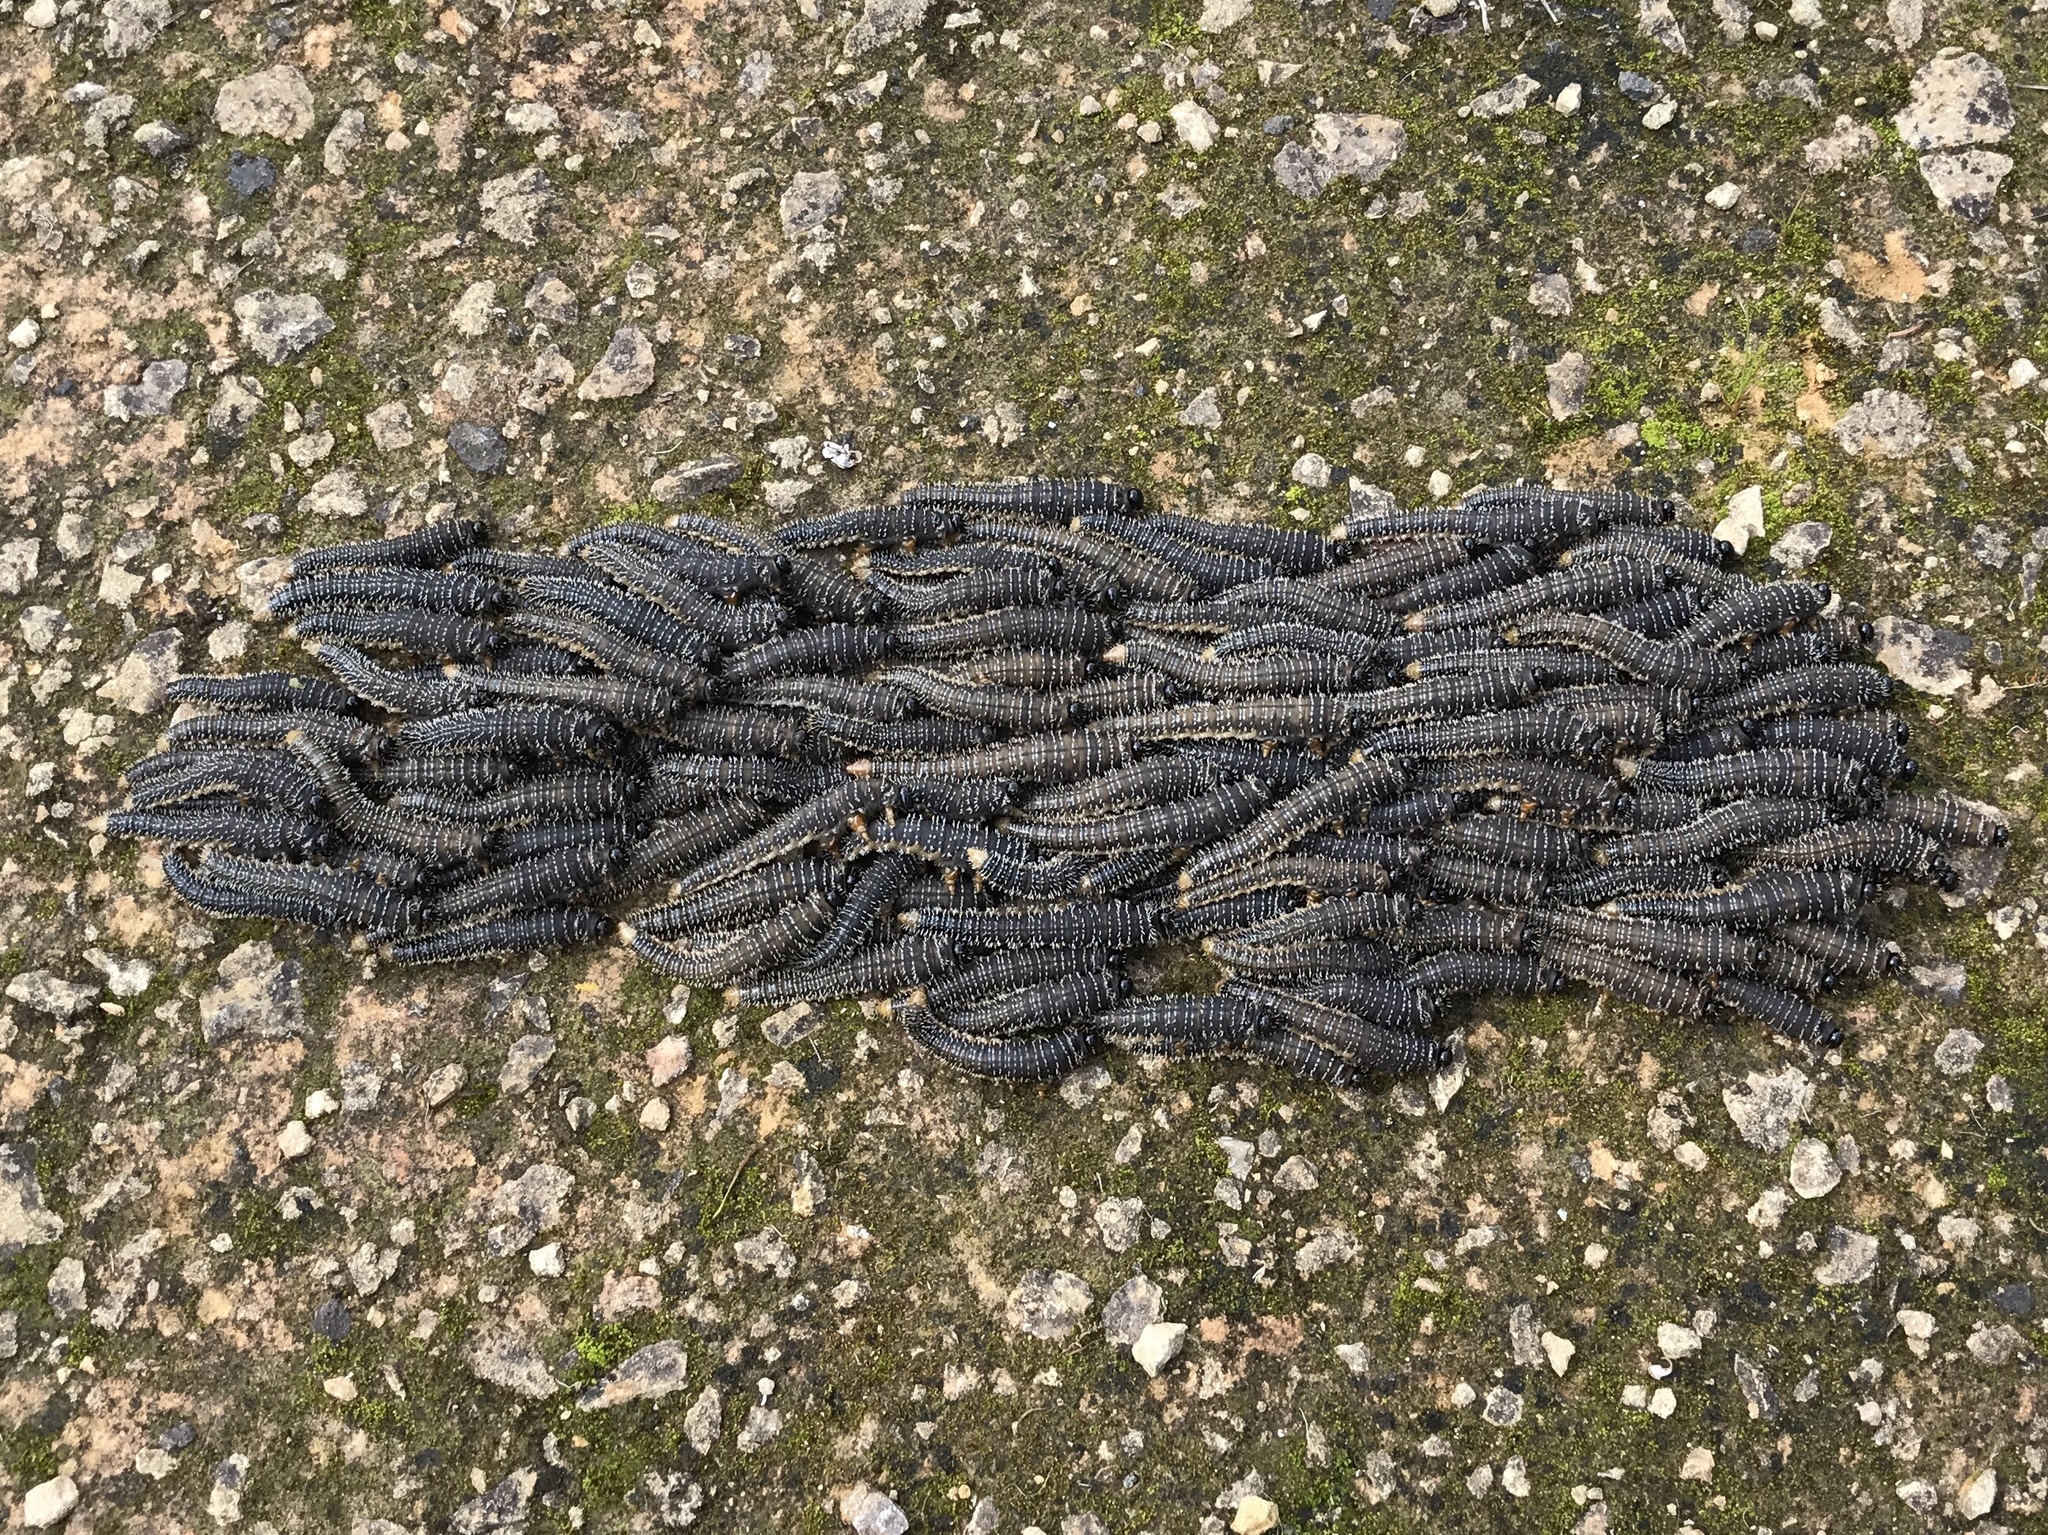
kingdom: Animalia
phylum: Arthropoda
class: Insecta
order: Hymenoptera
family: Pergidae
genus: Perga
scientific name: Perga affinis
